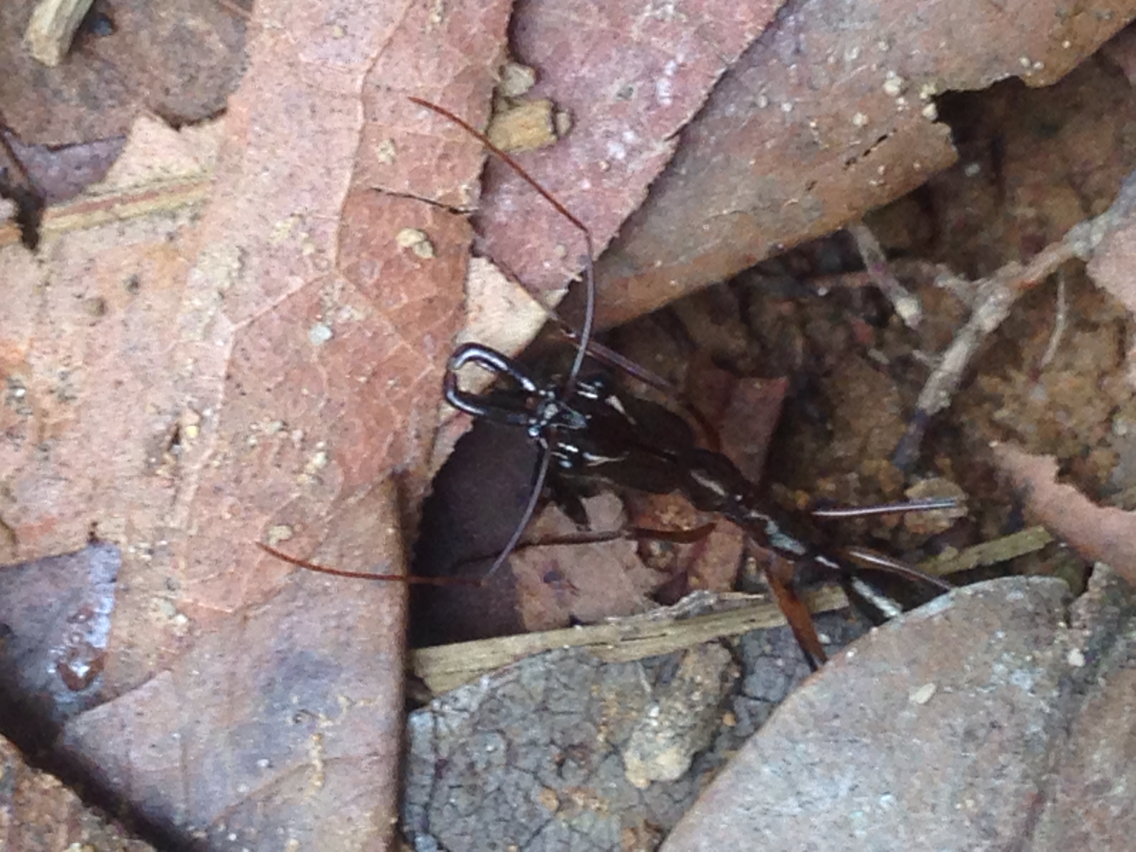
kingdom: Animalia
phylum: Arthropoda
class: Insecta
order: Hymenoptera
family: Formicidae
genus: Odontomachus
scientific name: Odontomachus chelifer
